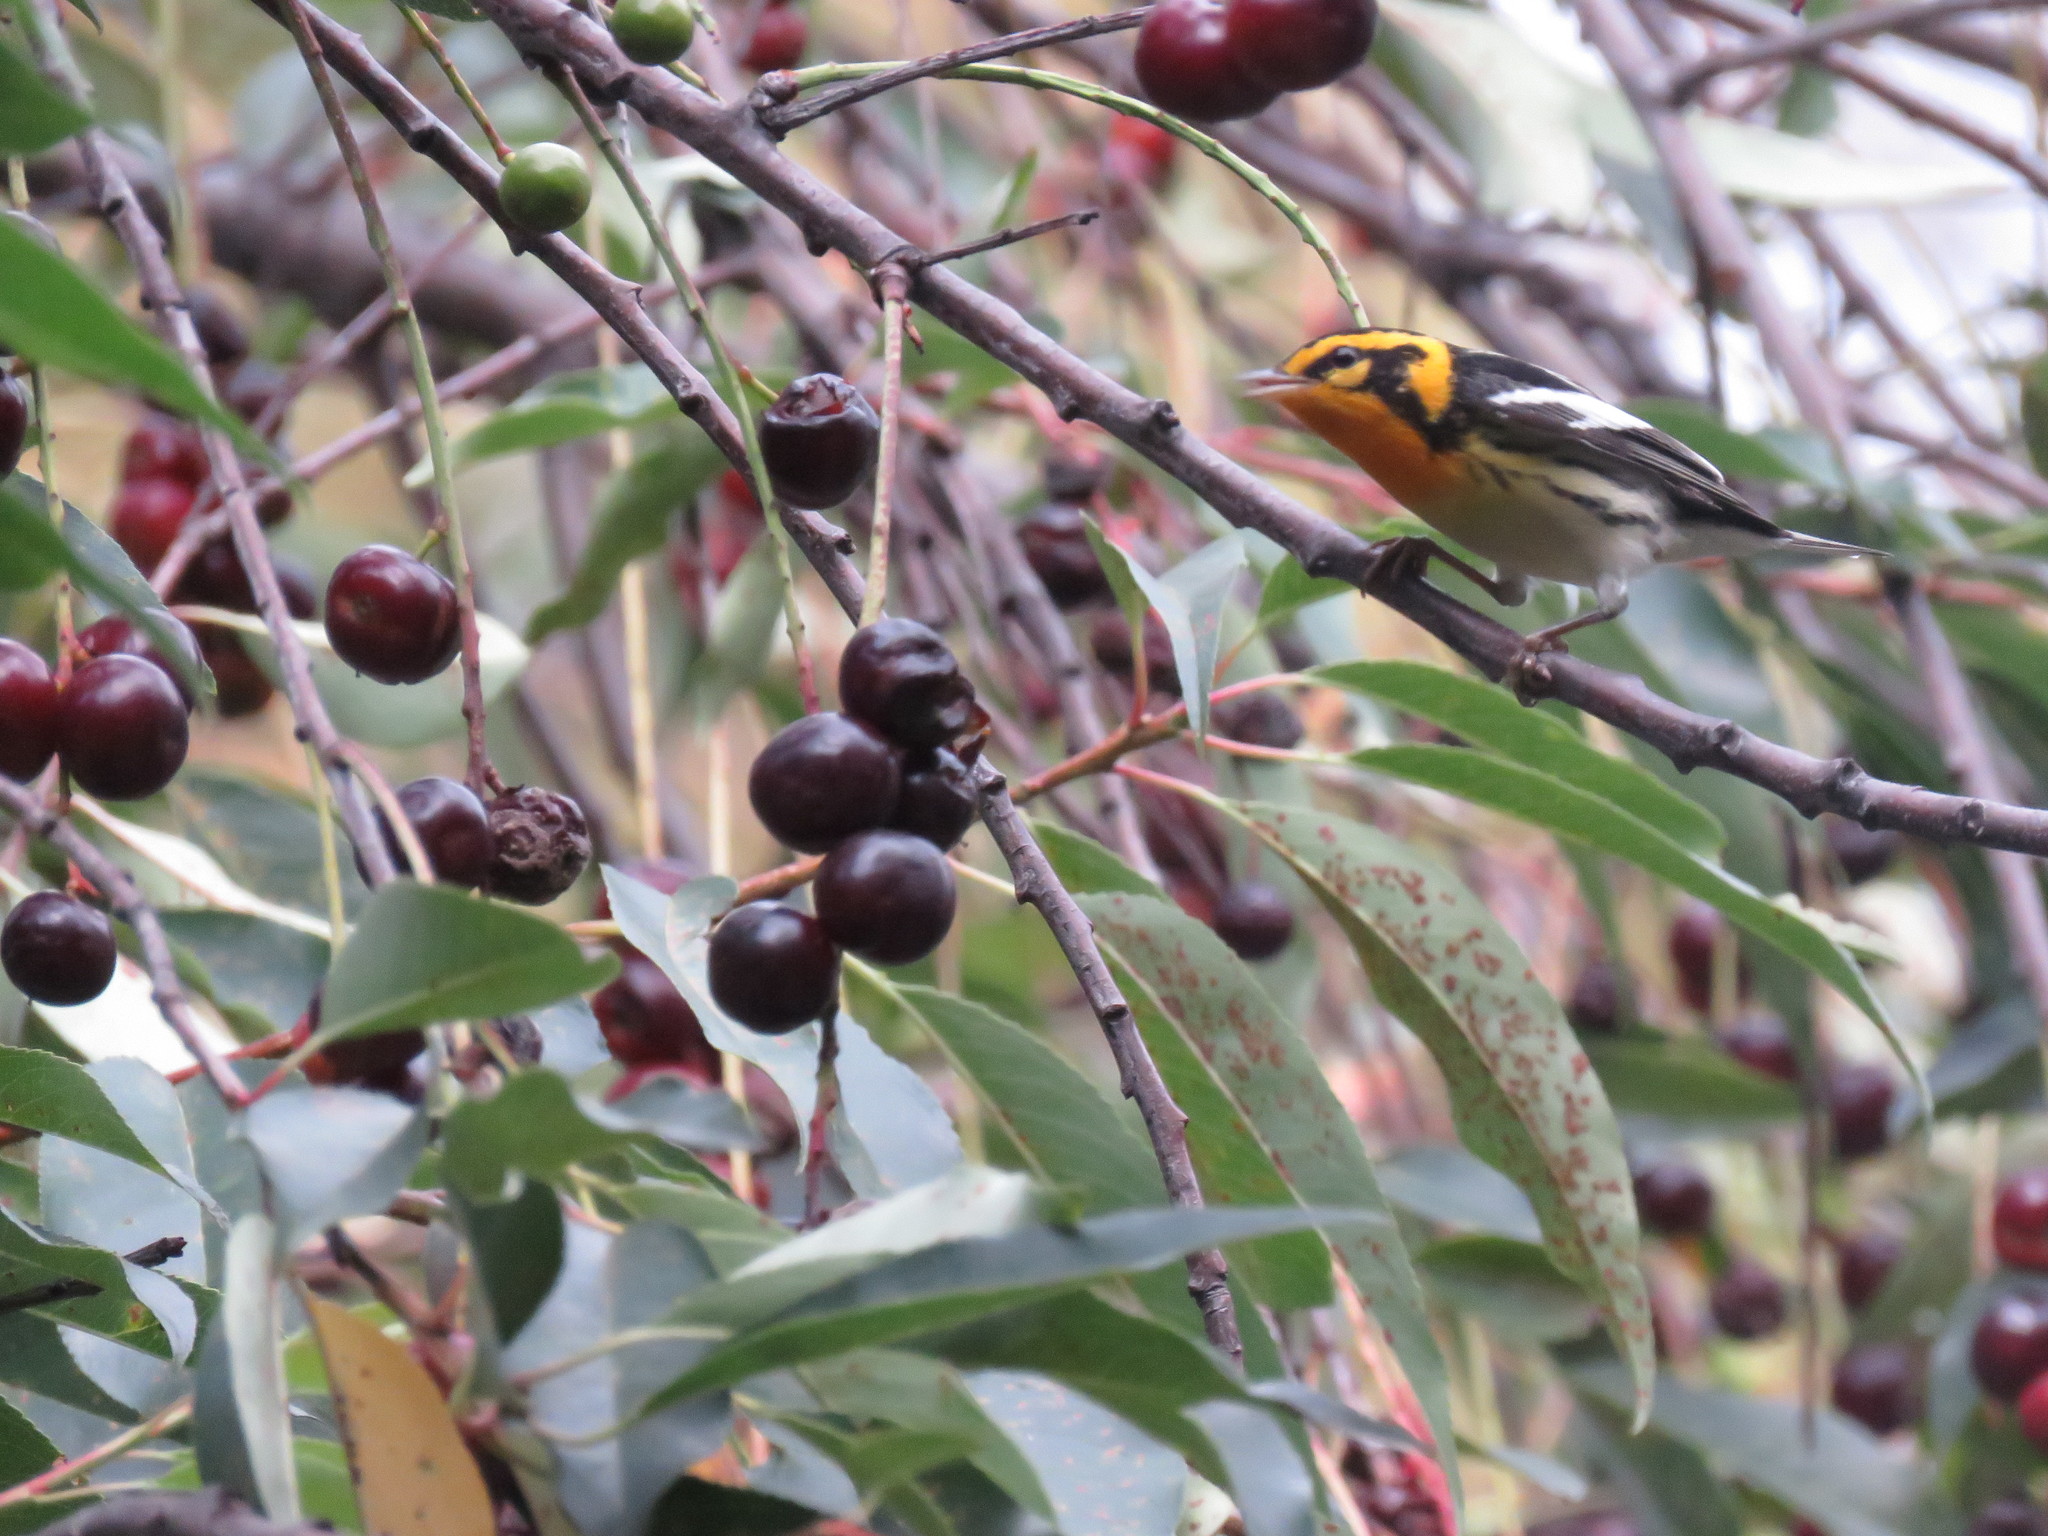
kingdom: Animalia
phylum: Chordata
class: Aves
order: Passeriformes
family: Parulidae
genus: Setophaga
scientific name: Setophaga fusca
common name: Blackburnian warbler
